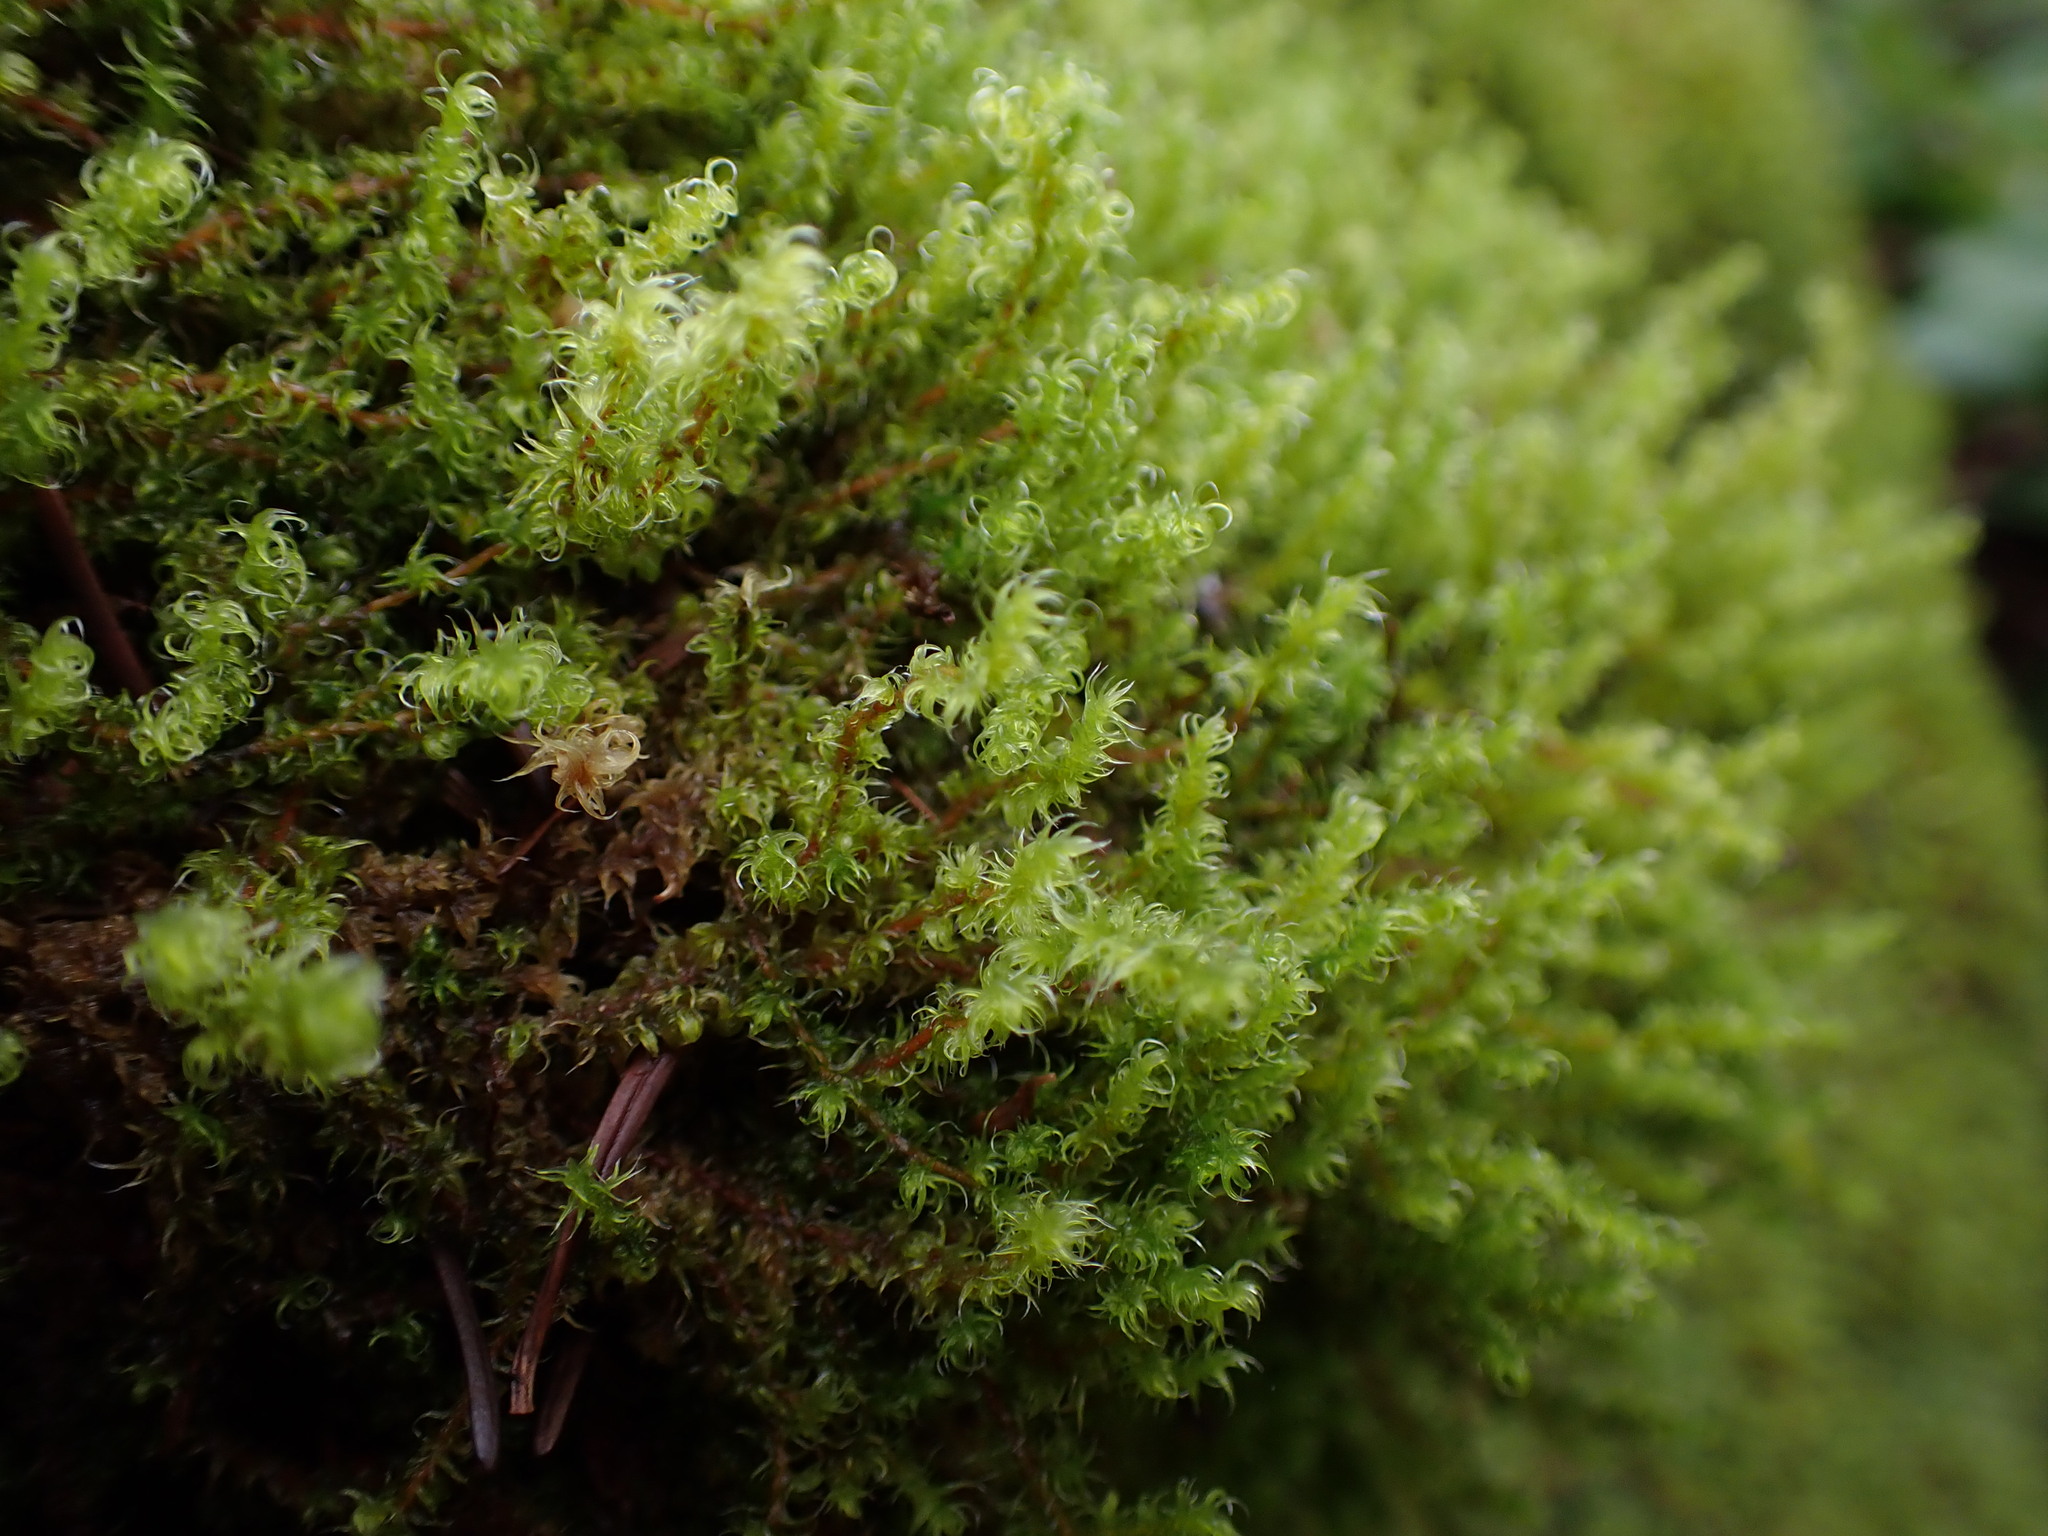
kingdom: Plantae
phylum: Bryophyta
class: Bryopsida
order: Grimmiales
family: Grimmiaceae
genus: Niphotrichum
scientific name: Niphotrichum elongatum
